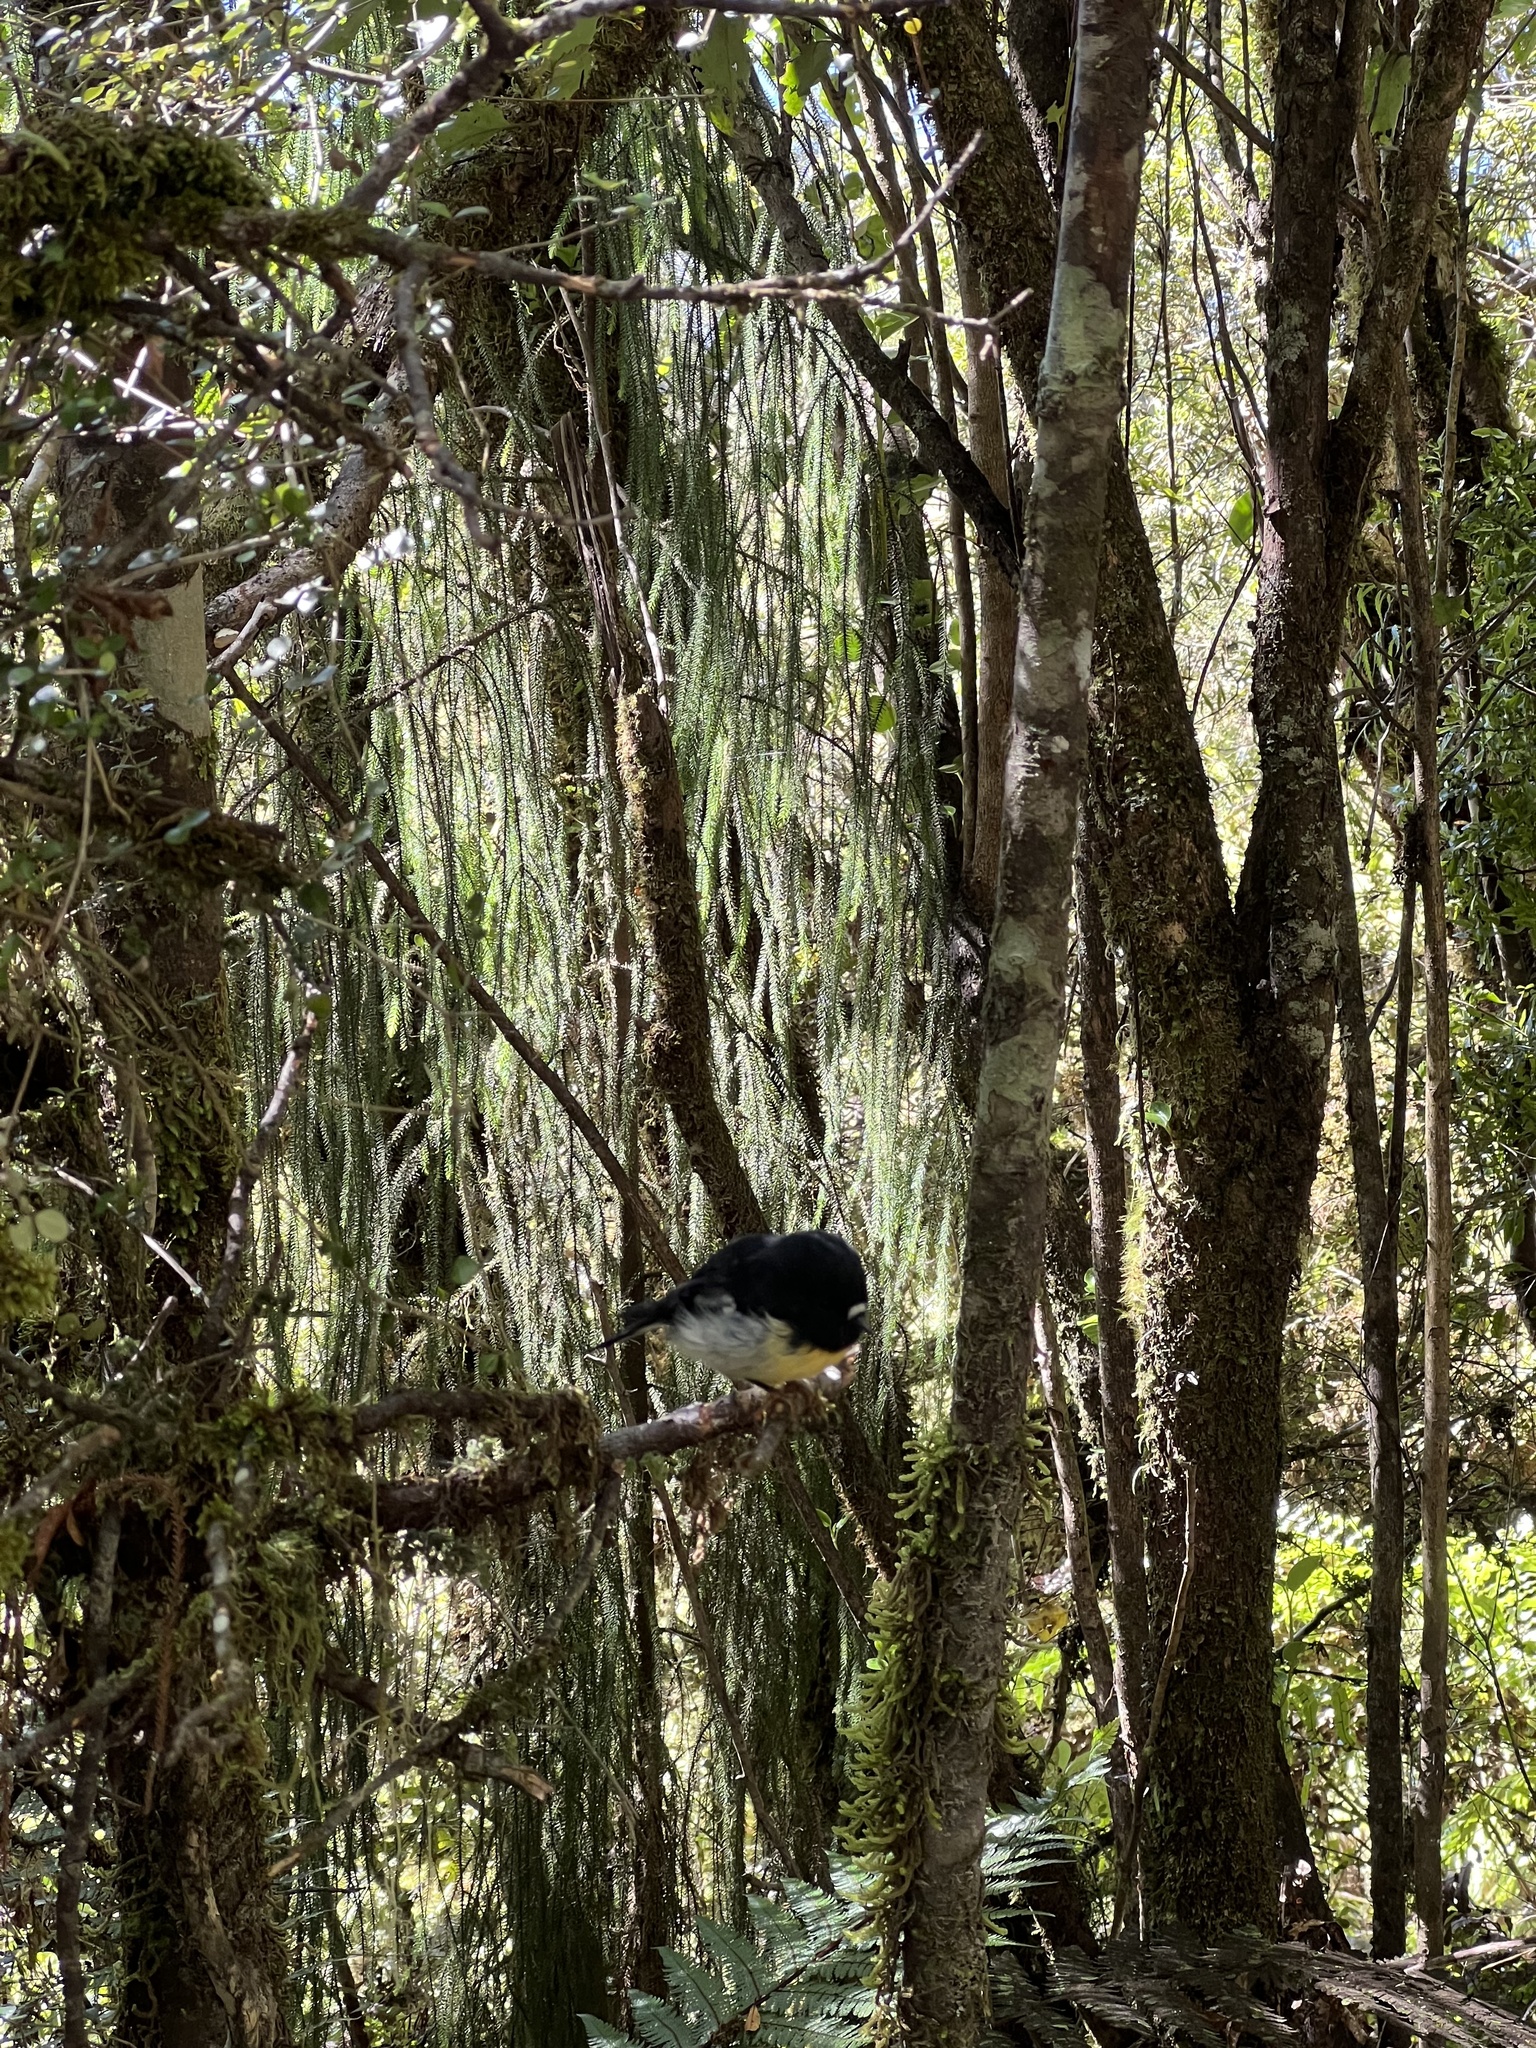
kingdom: Animalia
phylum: Chordata
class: Aves
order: Passeriformes
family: Petroicidae
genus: Petroica
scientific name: Petroica macrocephala
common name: Tomtit
